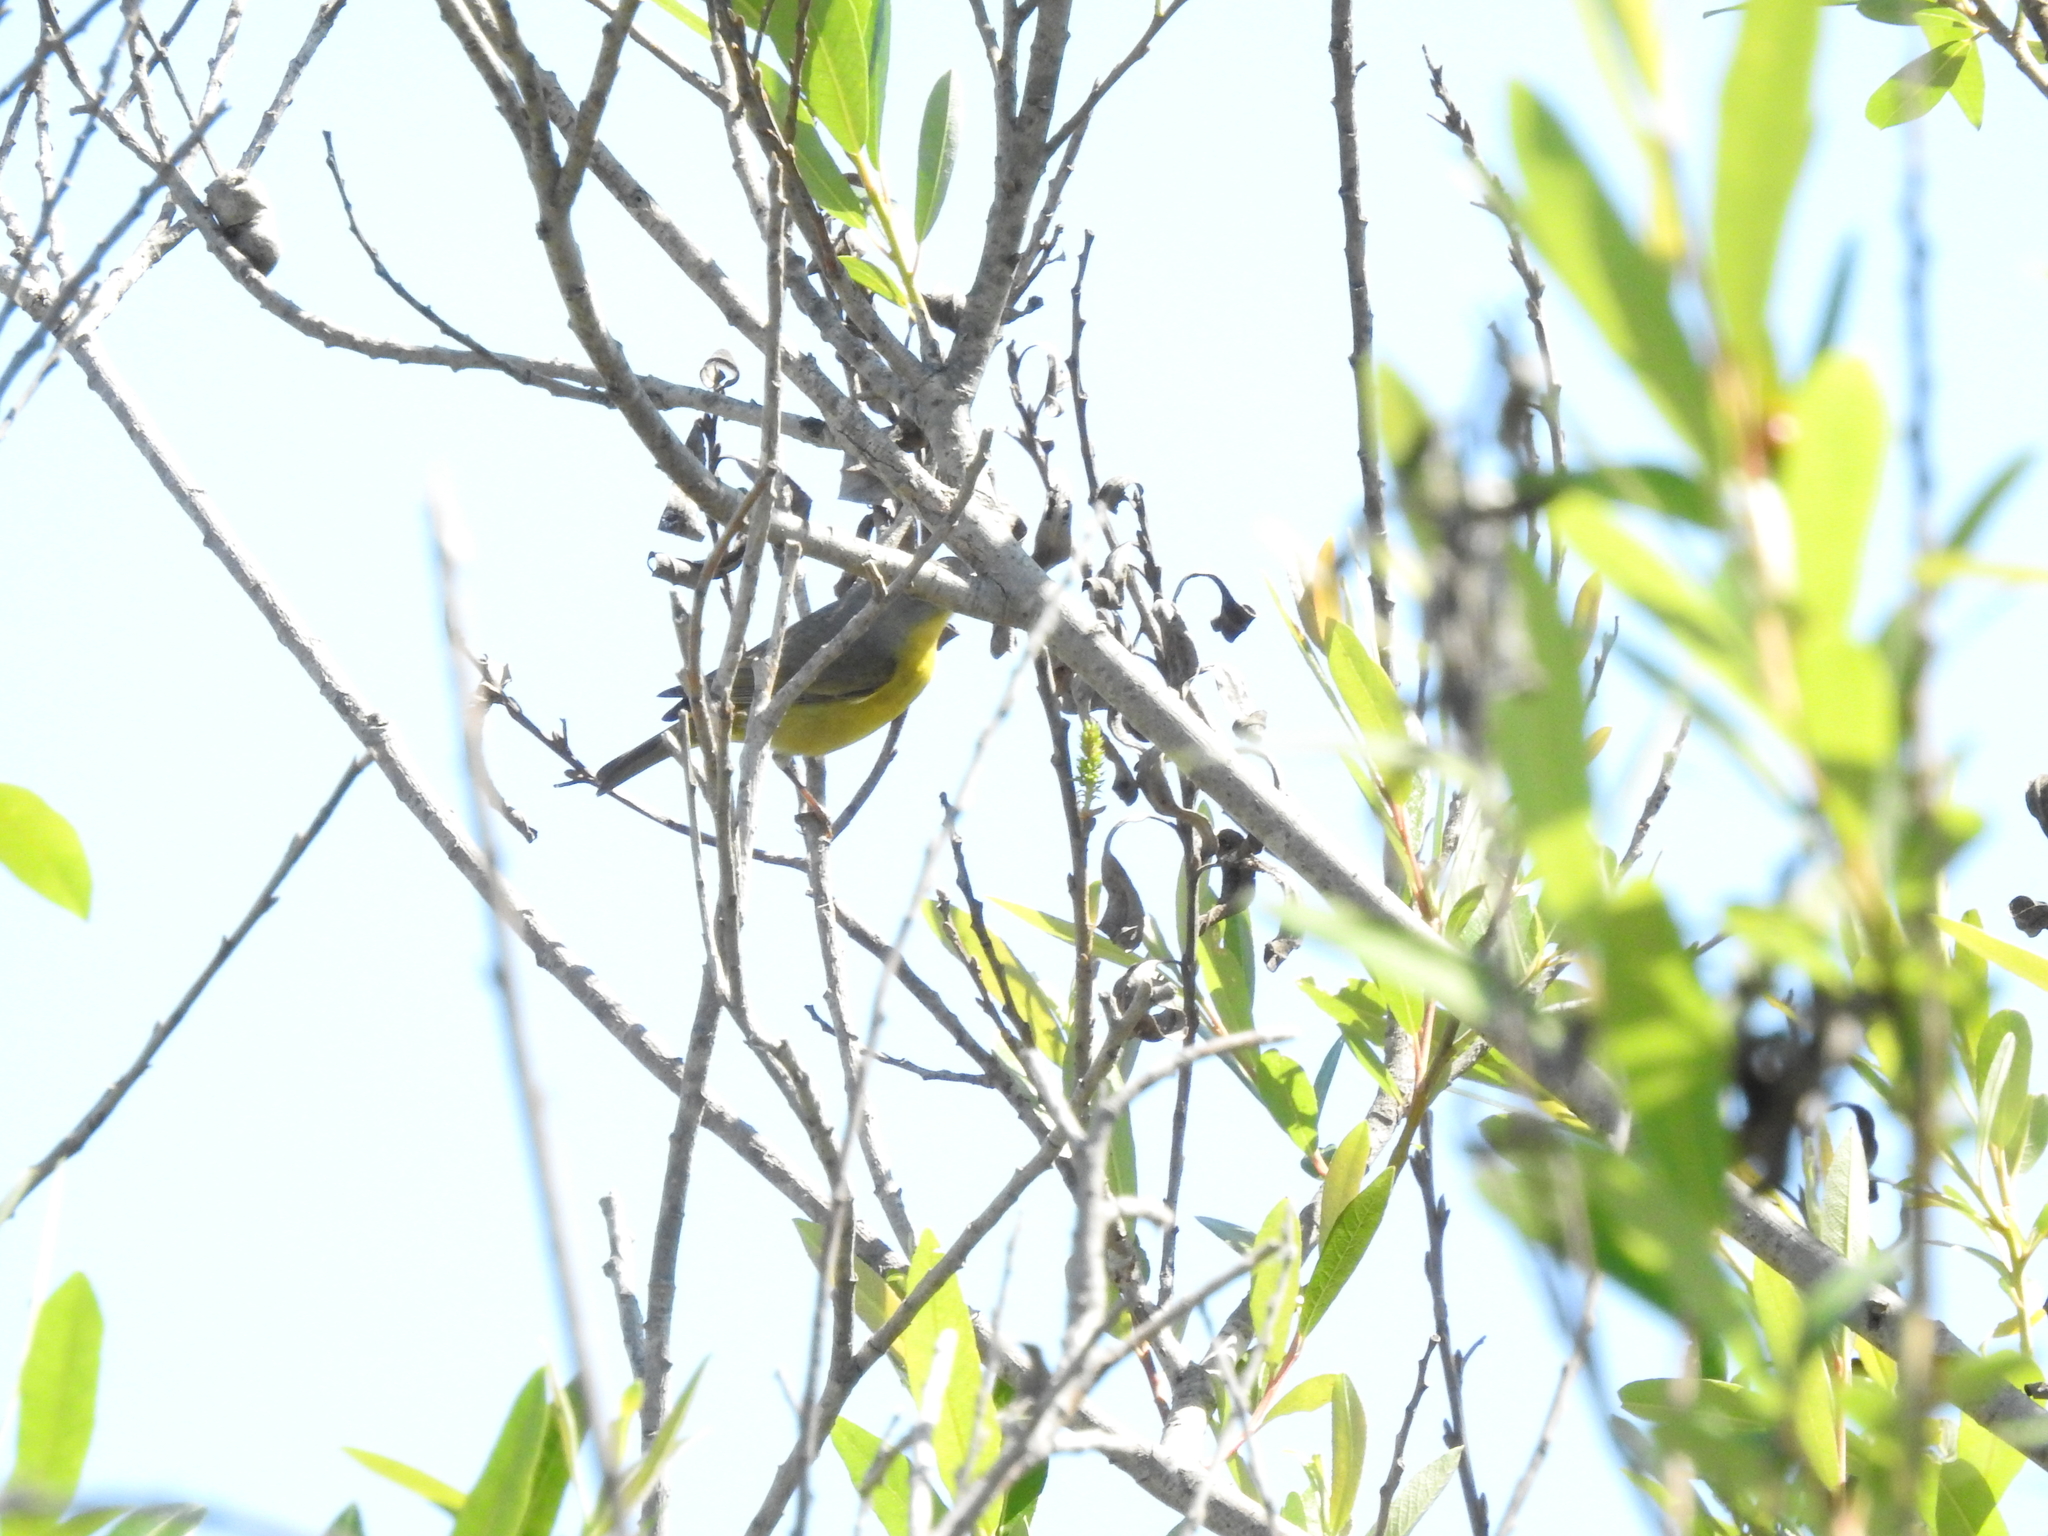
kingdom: Animalia
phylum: Chordata
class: Aves
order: Passeriformes
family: Parulidae
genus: Leiothlypis
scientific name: Leiothlypis ruficapilla
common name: Nashville warbler
